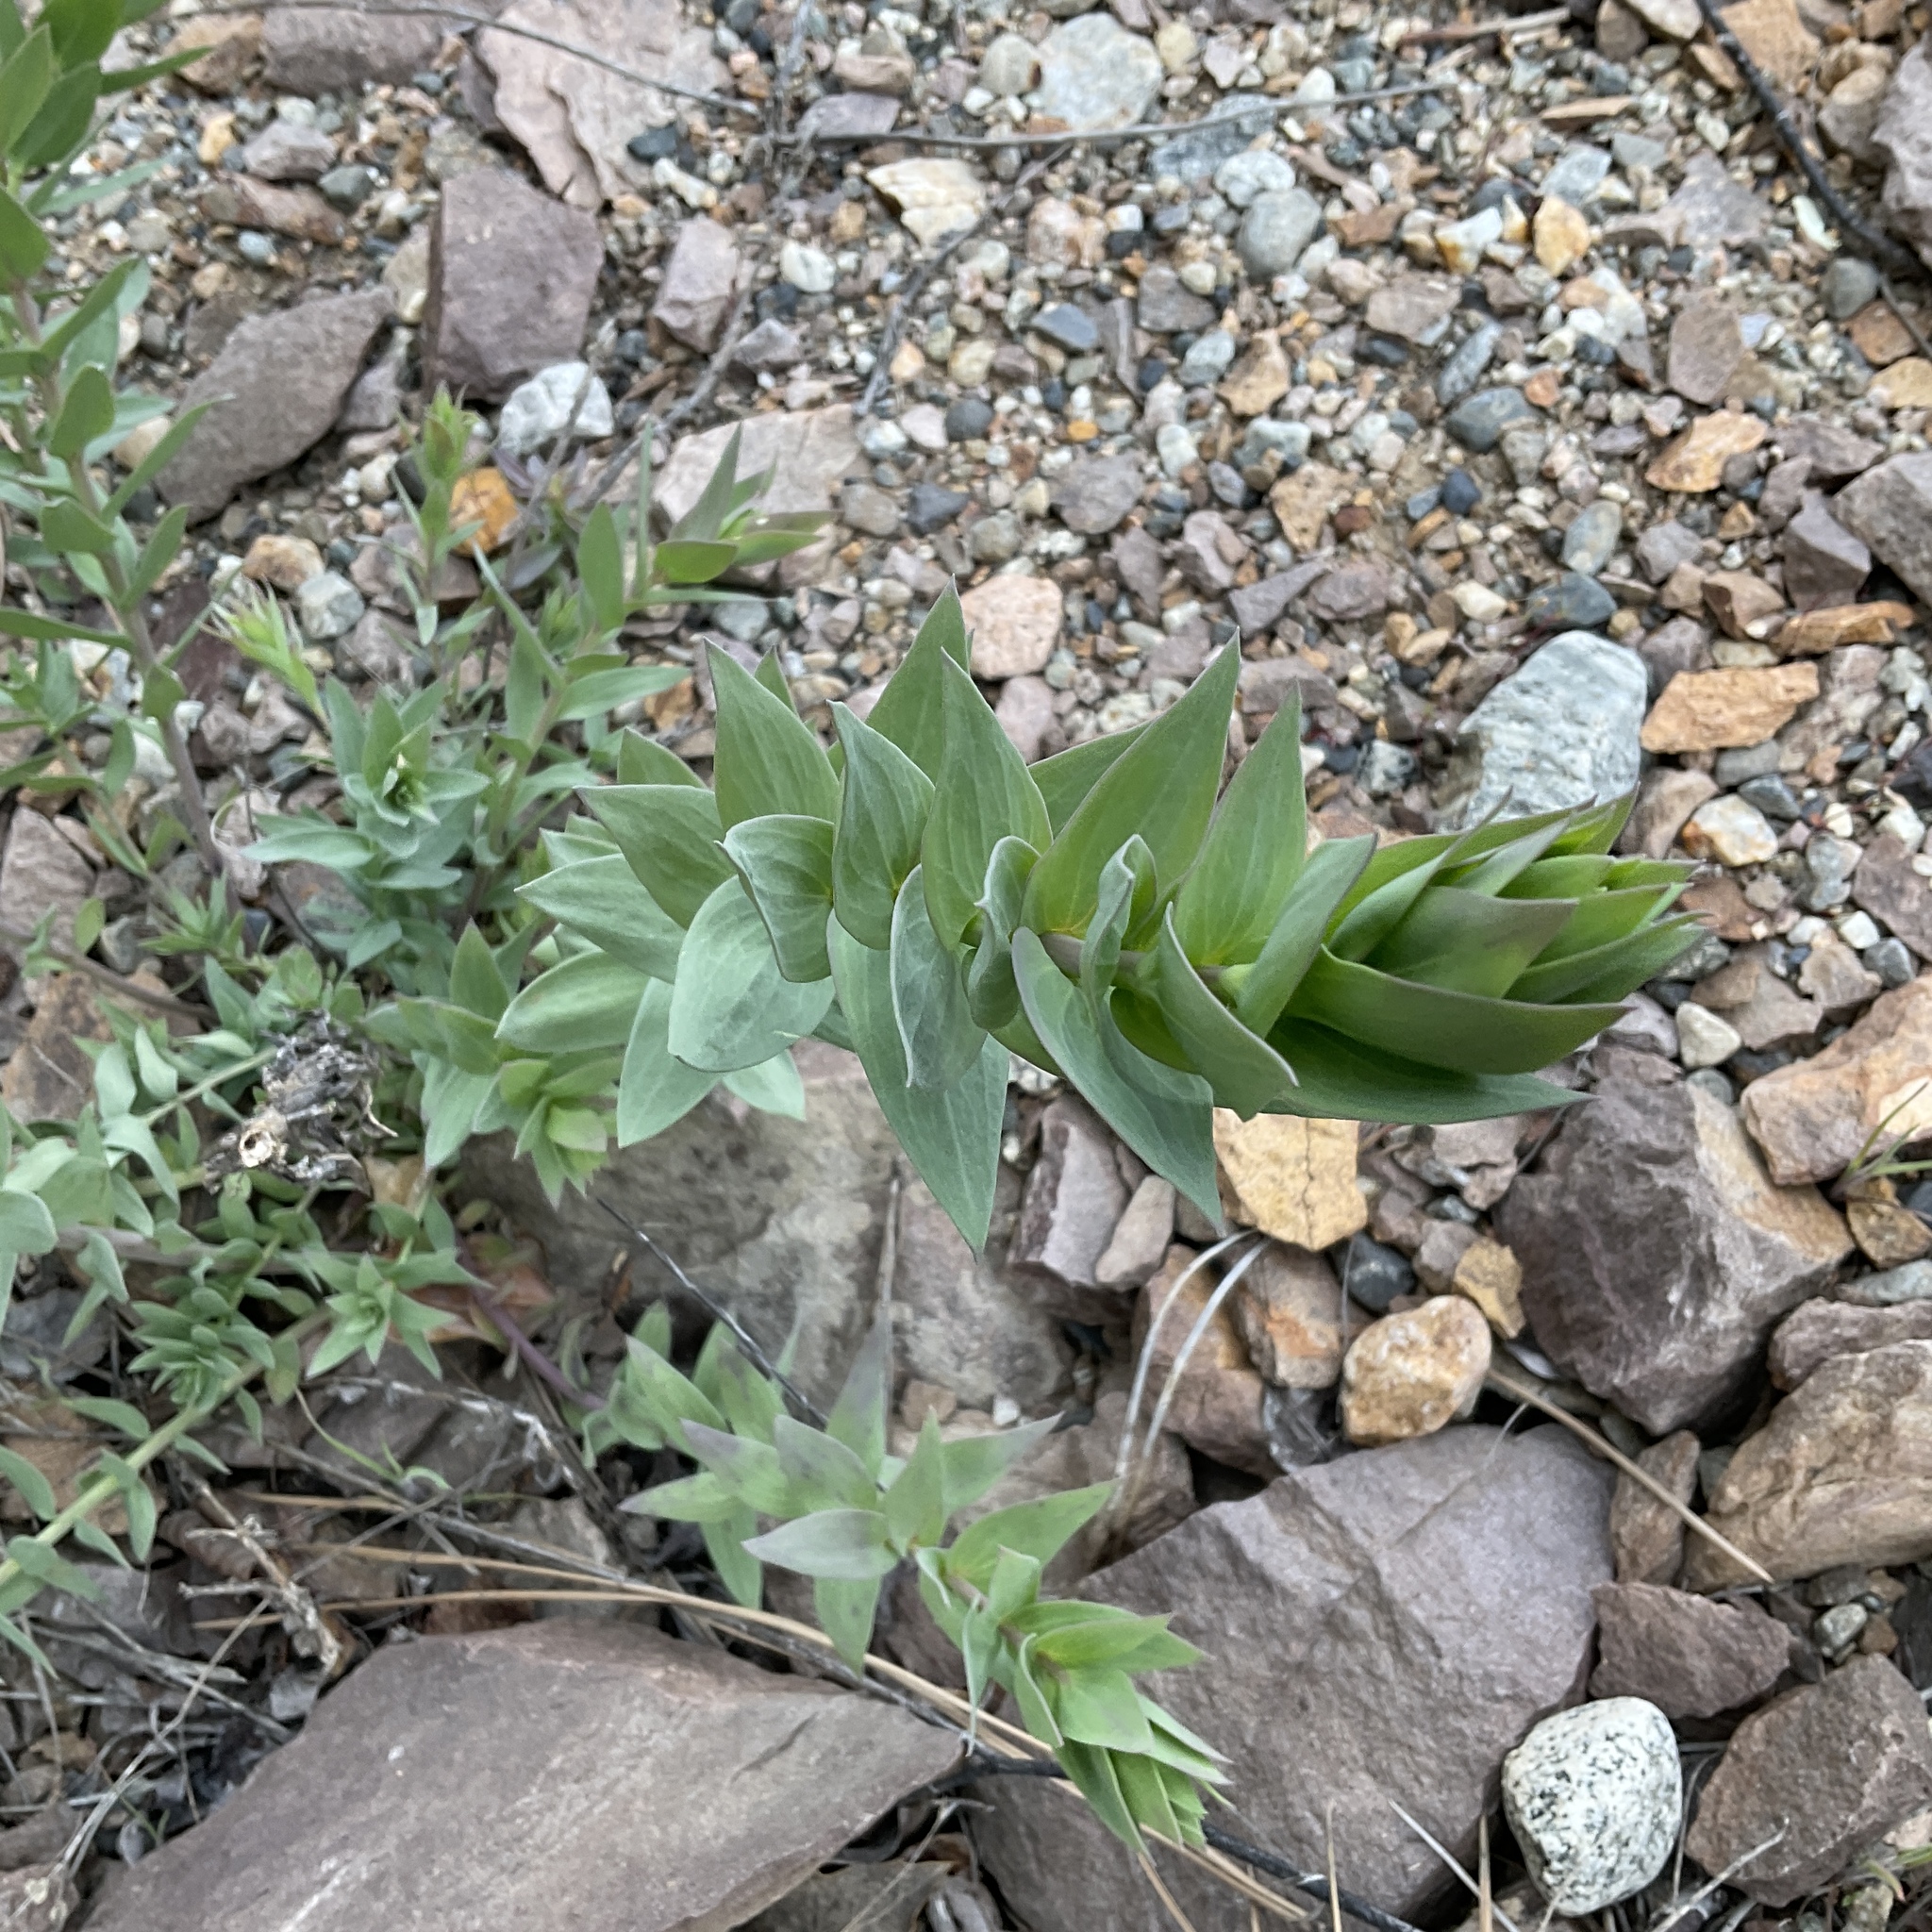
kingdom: Plantae
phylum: Tracheophyta
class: Magnoliopsida
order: Lamiales
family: Plantaginaceae
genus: Linaria
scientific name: Linaria dalmatica
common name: Dalmatian toadflax
